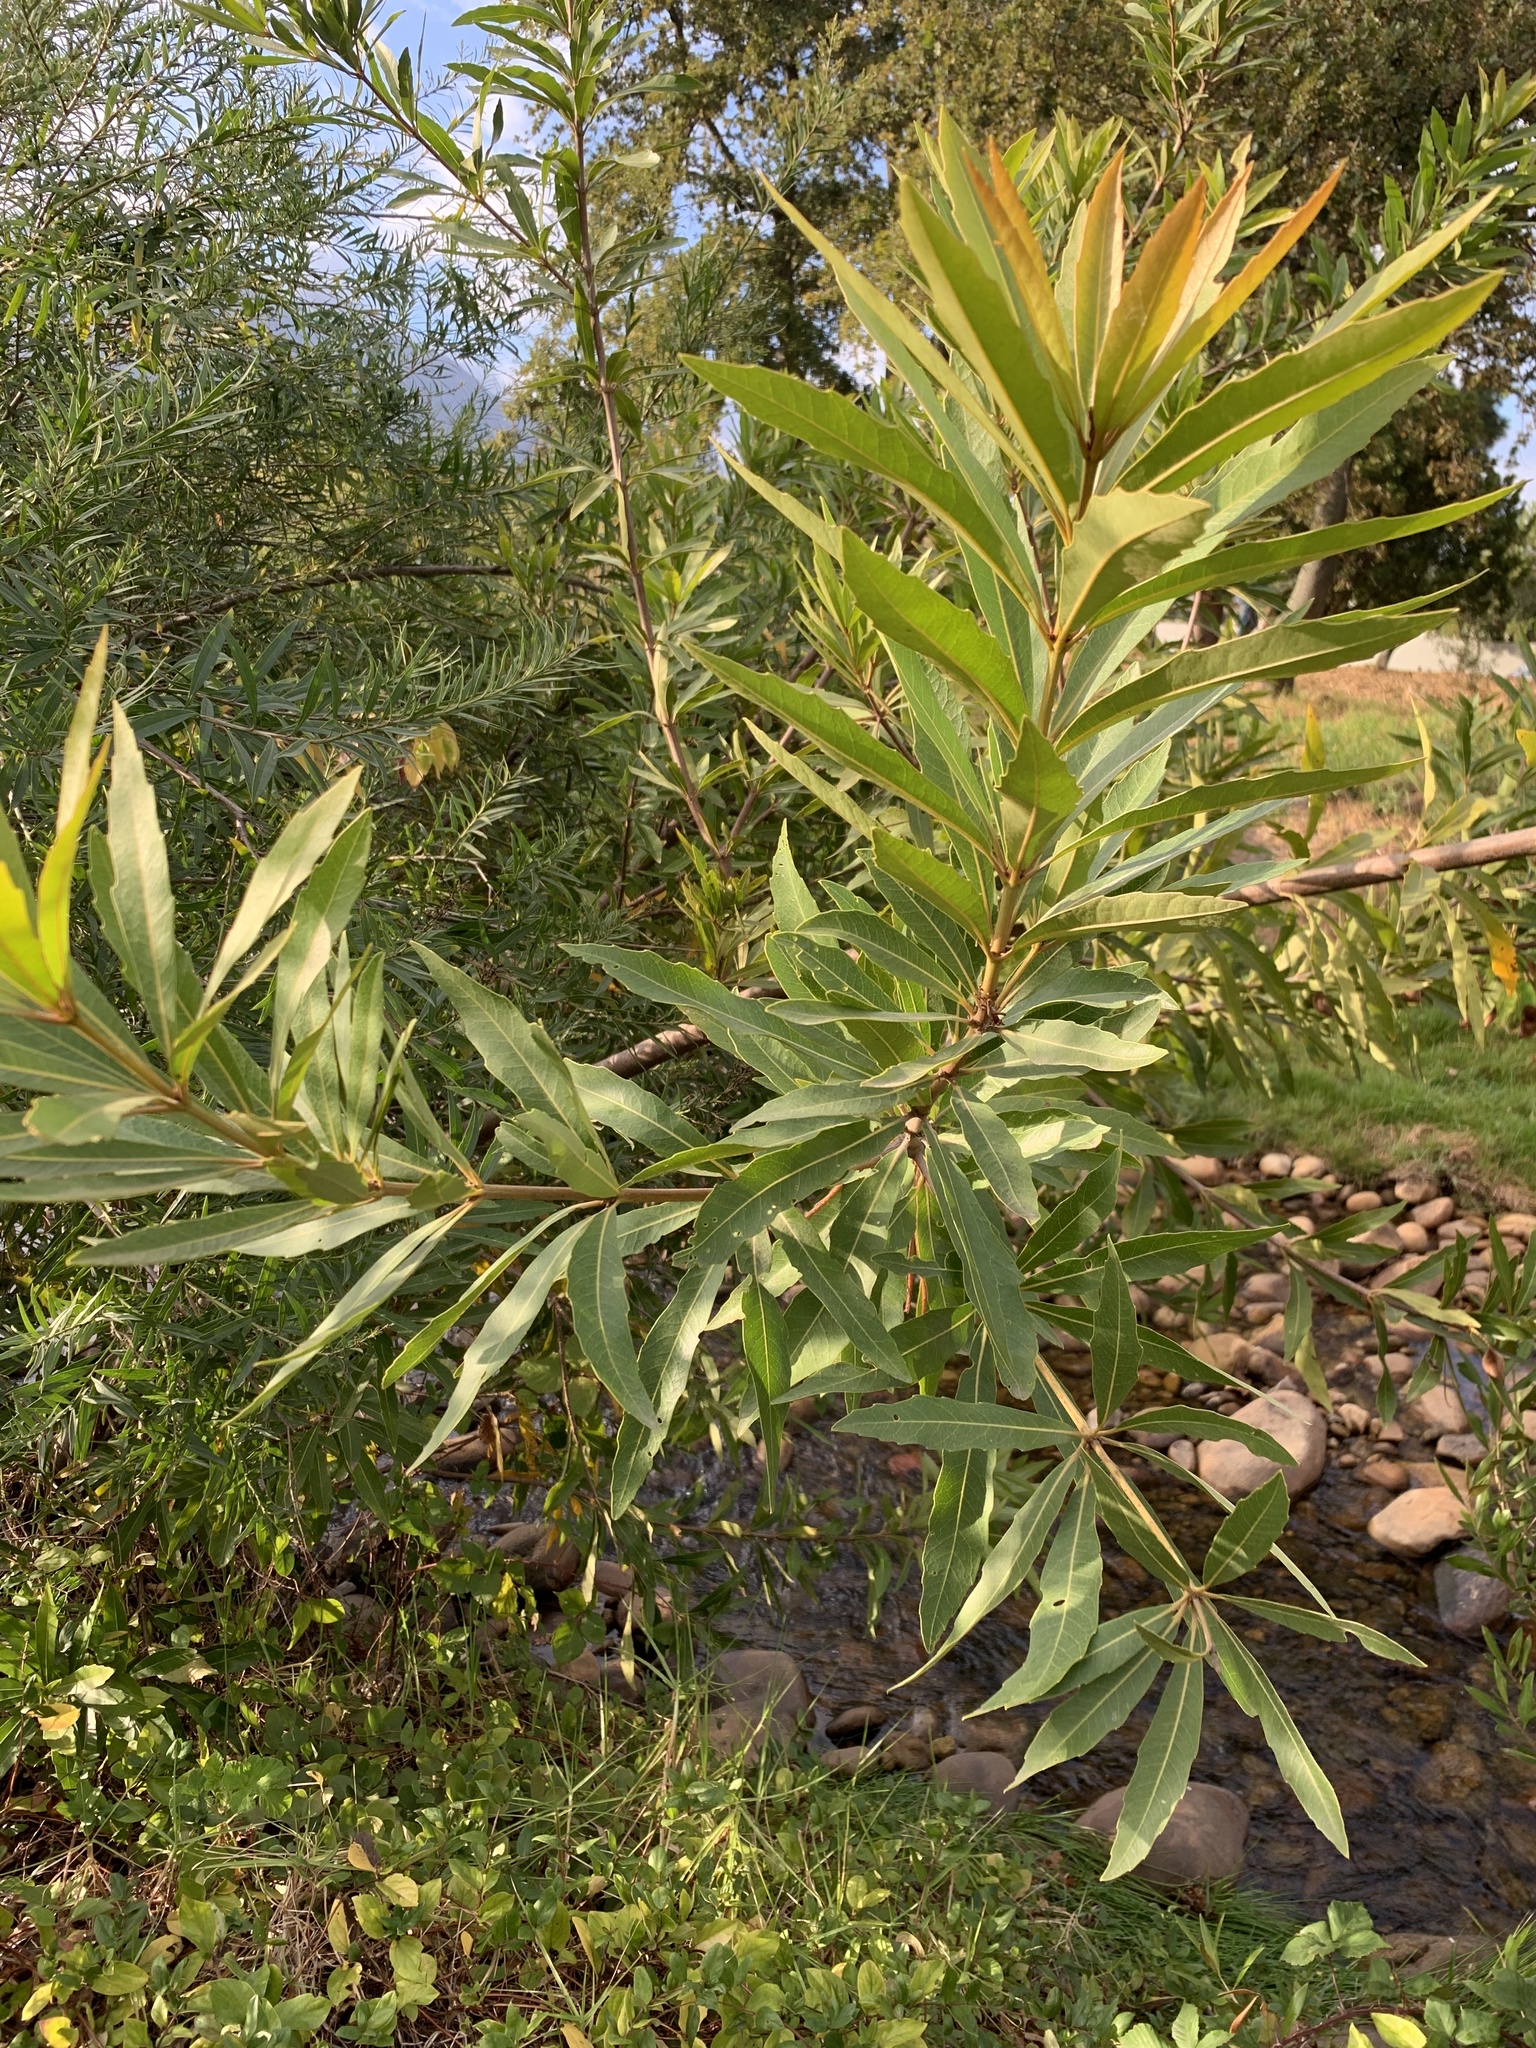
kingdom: Plantae
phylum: Tracheophyta
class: Magnoliopsida
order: Proteales
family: Proteaceae
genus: Brabejum
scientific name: Brabejum stellatifolium
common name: Wild almond
